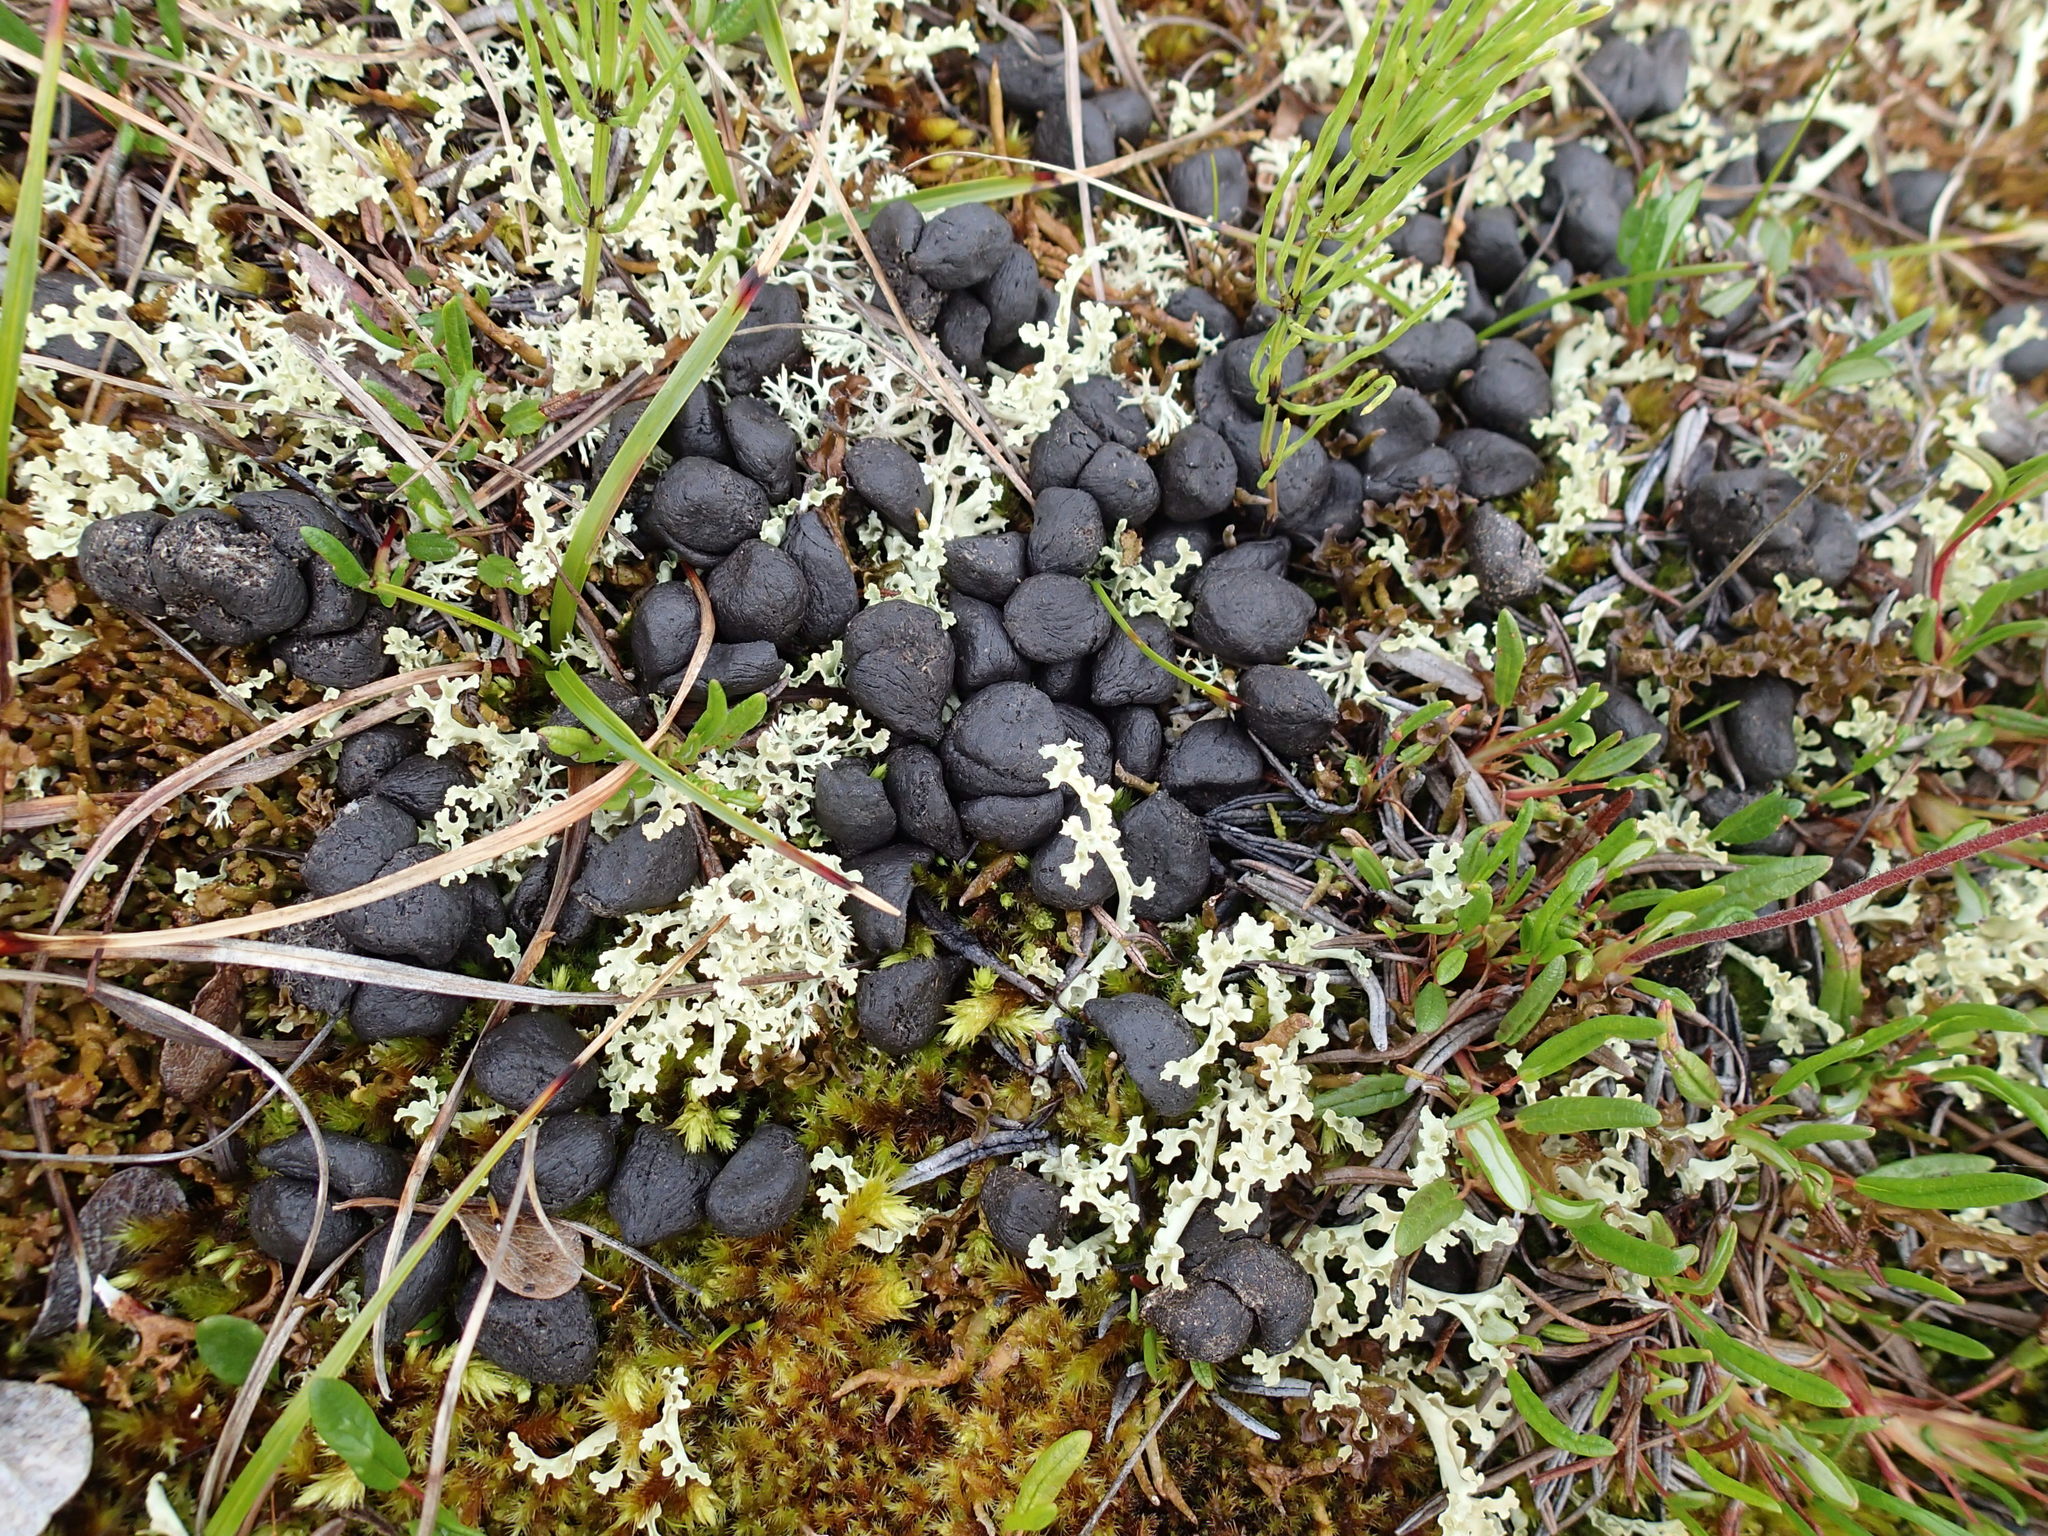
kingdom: Animalia
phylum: Chordata
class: Mammalia
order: Artiodactyla
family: Cervidae
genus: Rangifer
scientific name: Rangifer tarandus
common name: Reindeer
